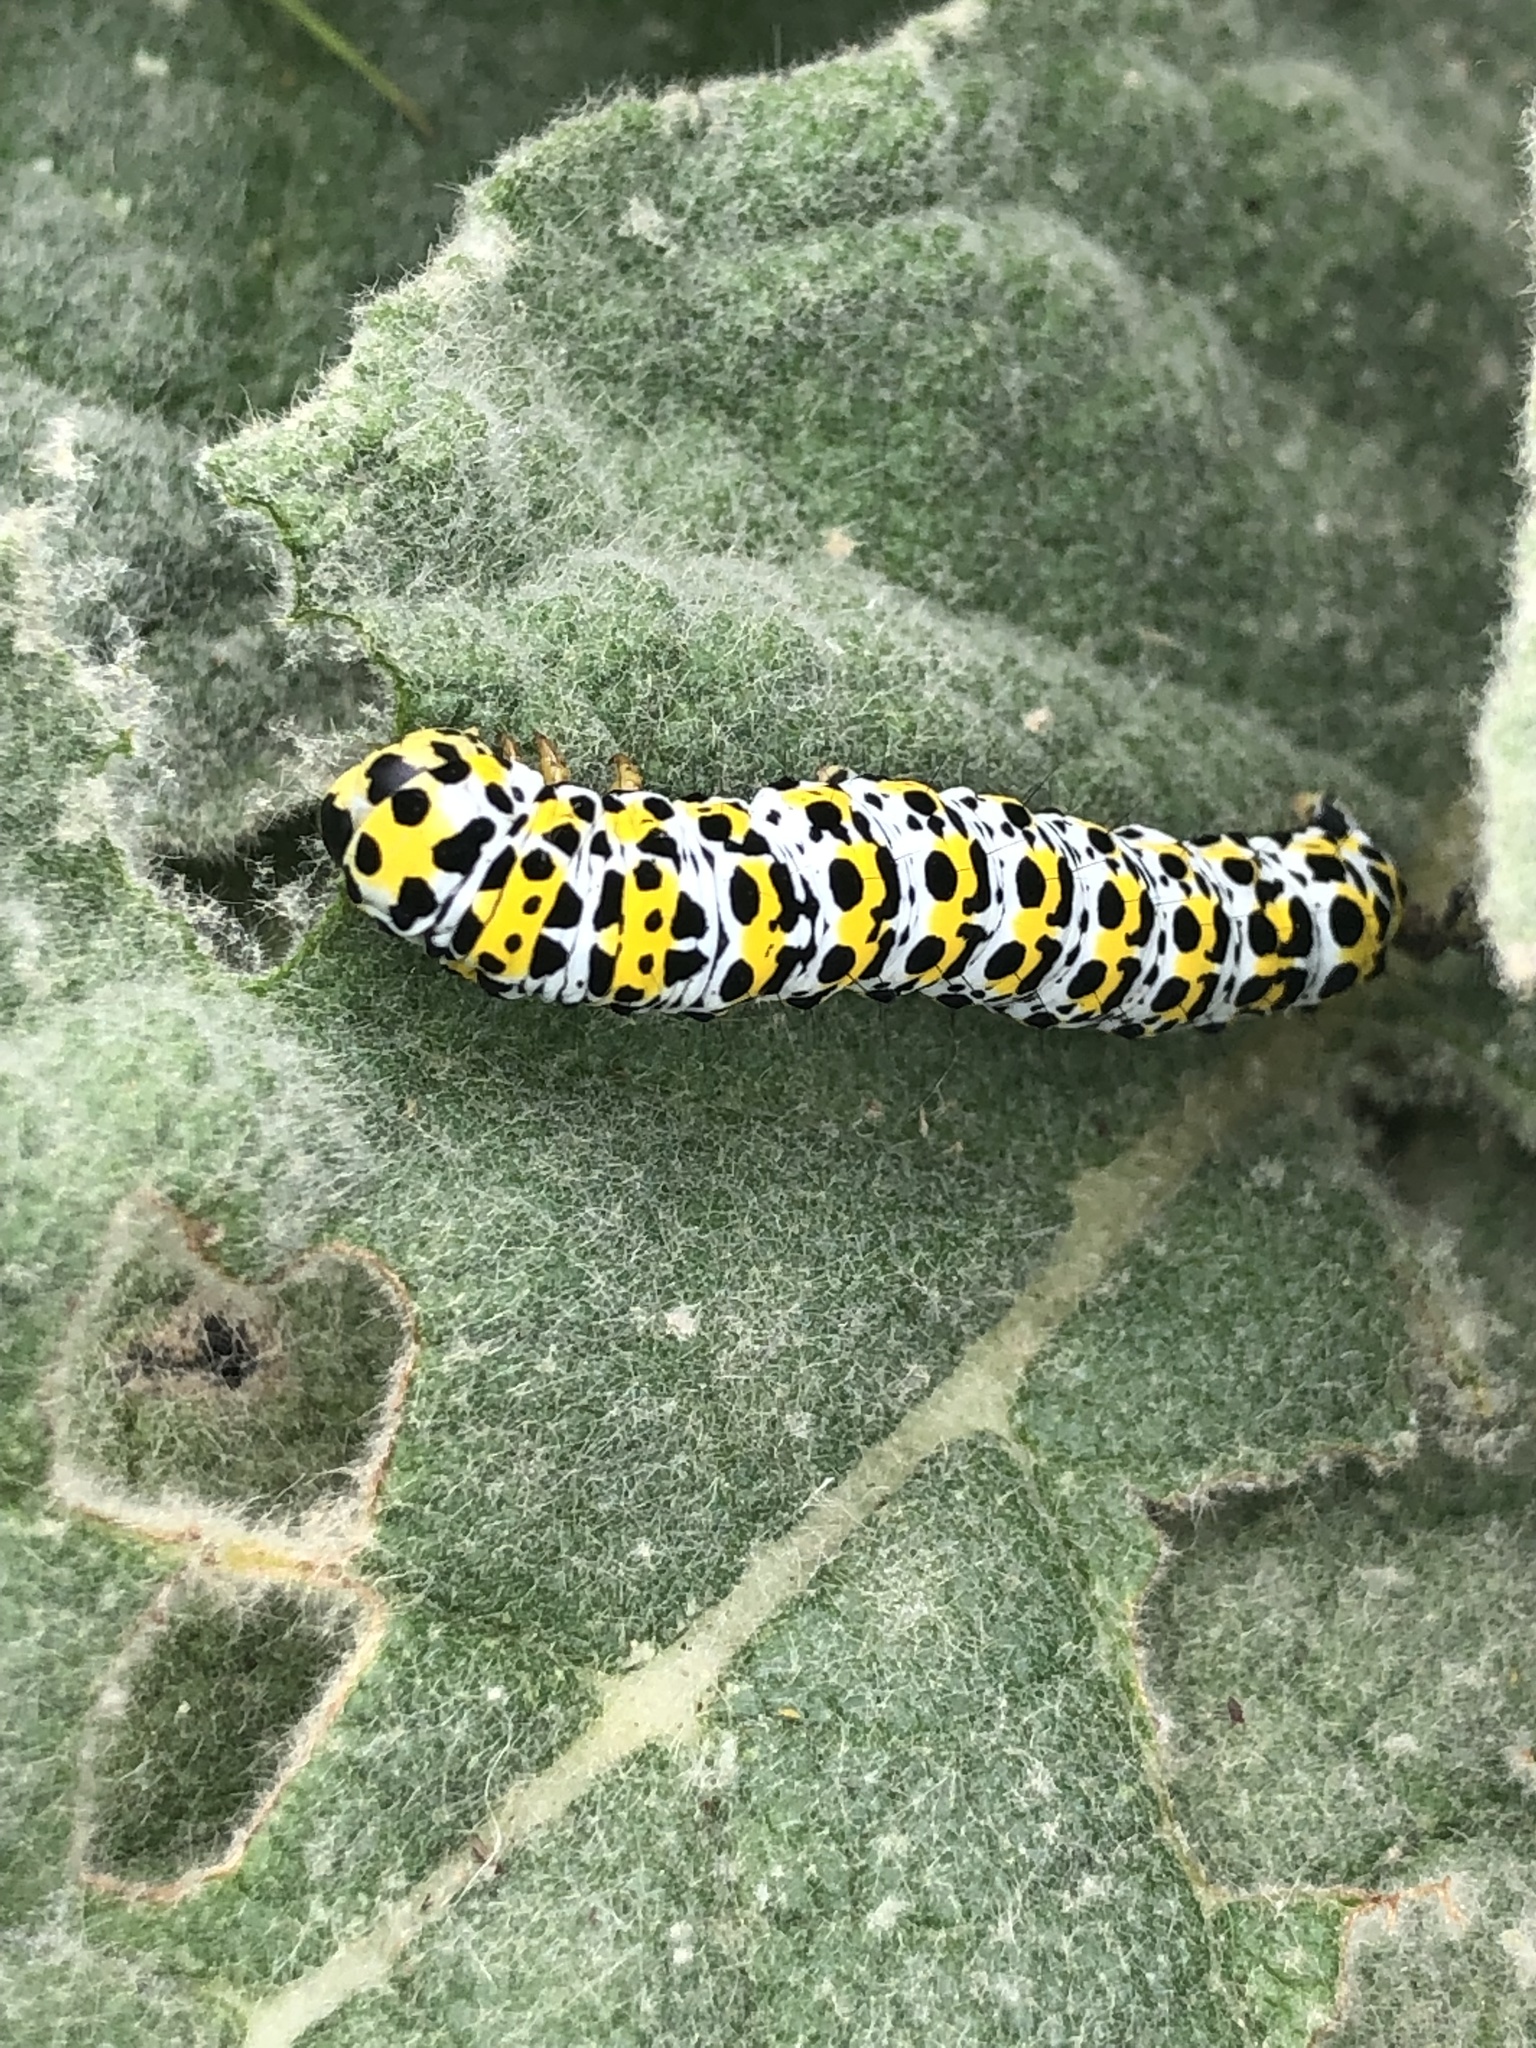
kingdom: Animalia
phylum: Arthropoda
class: Insecta
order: Lepidoptera
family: Noctuidae
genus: Cucullia
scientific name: Cucullia verbasci
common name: Mullein
